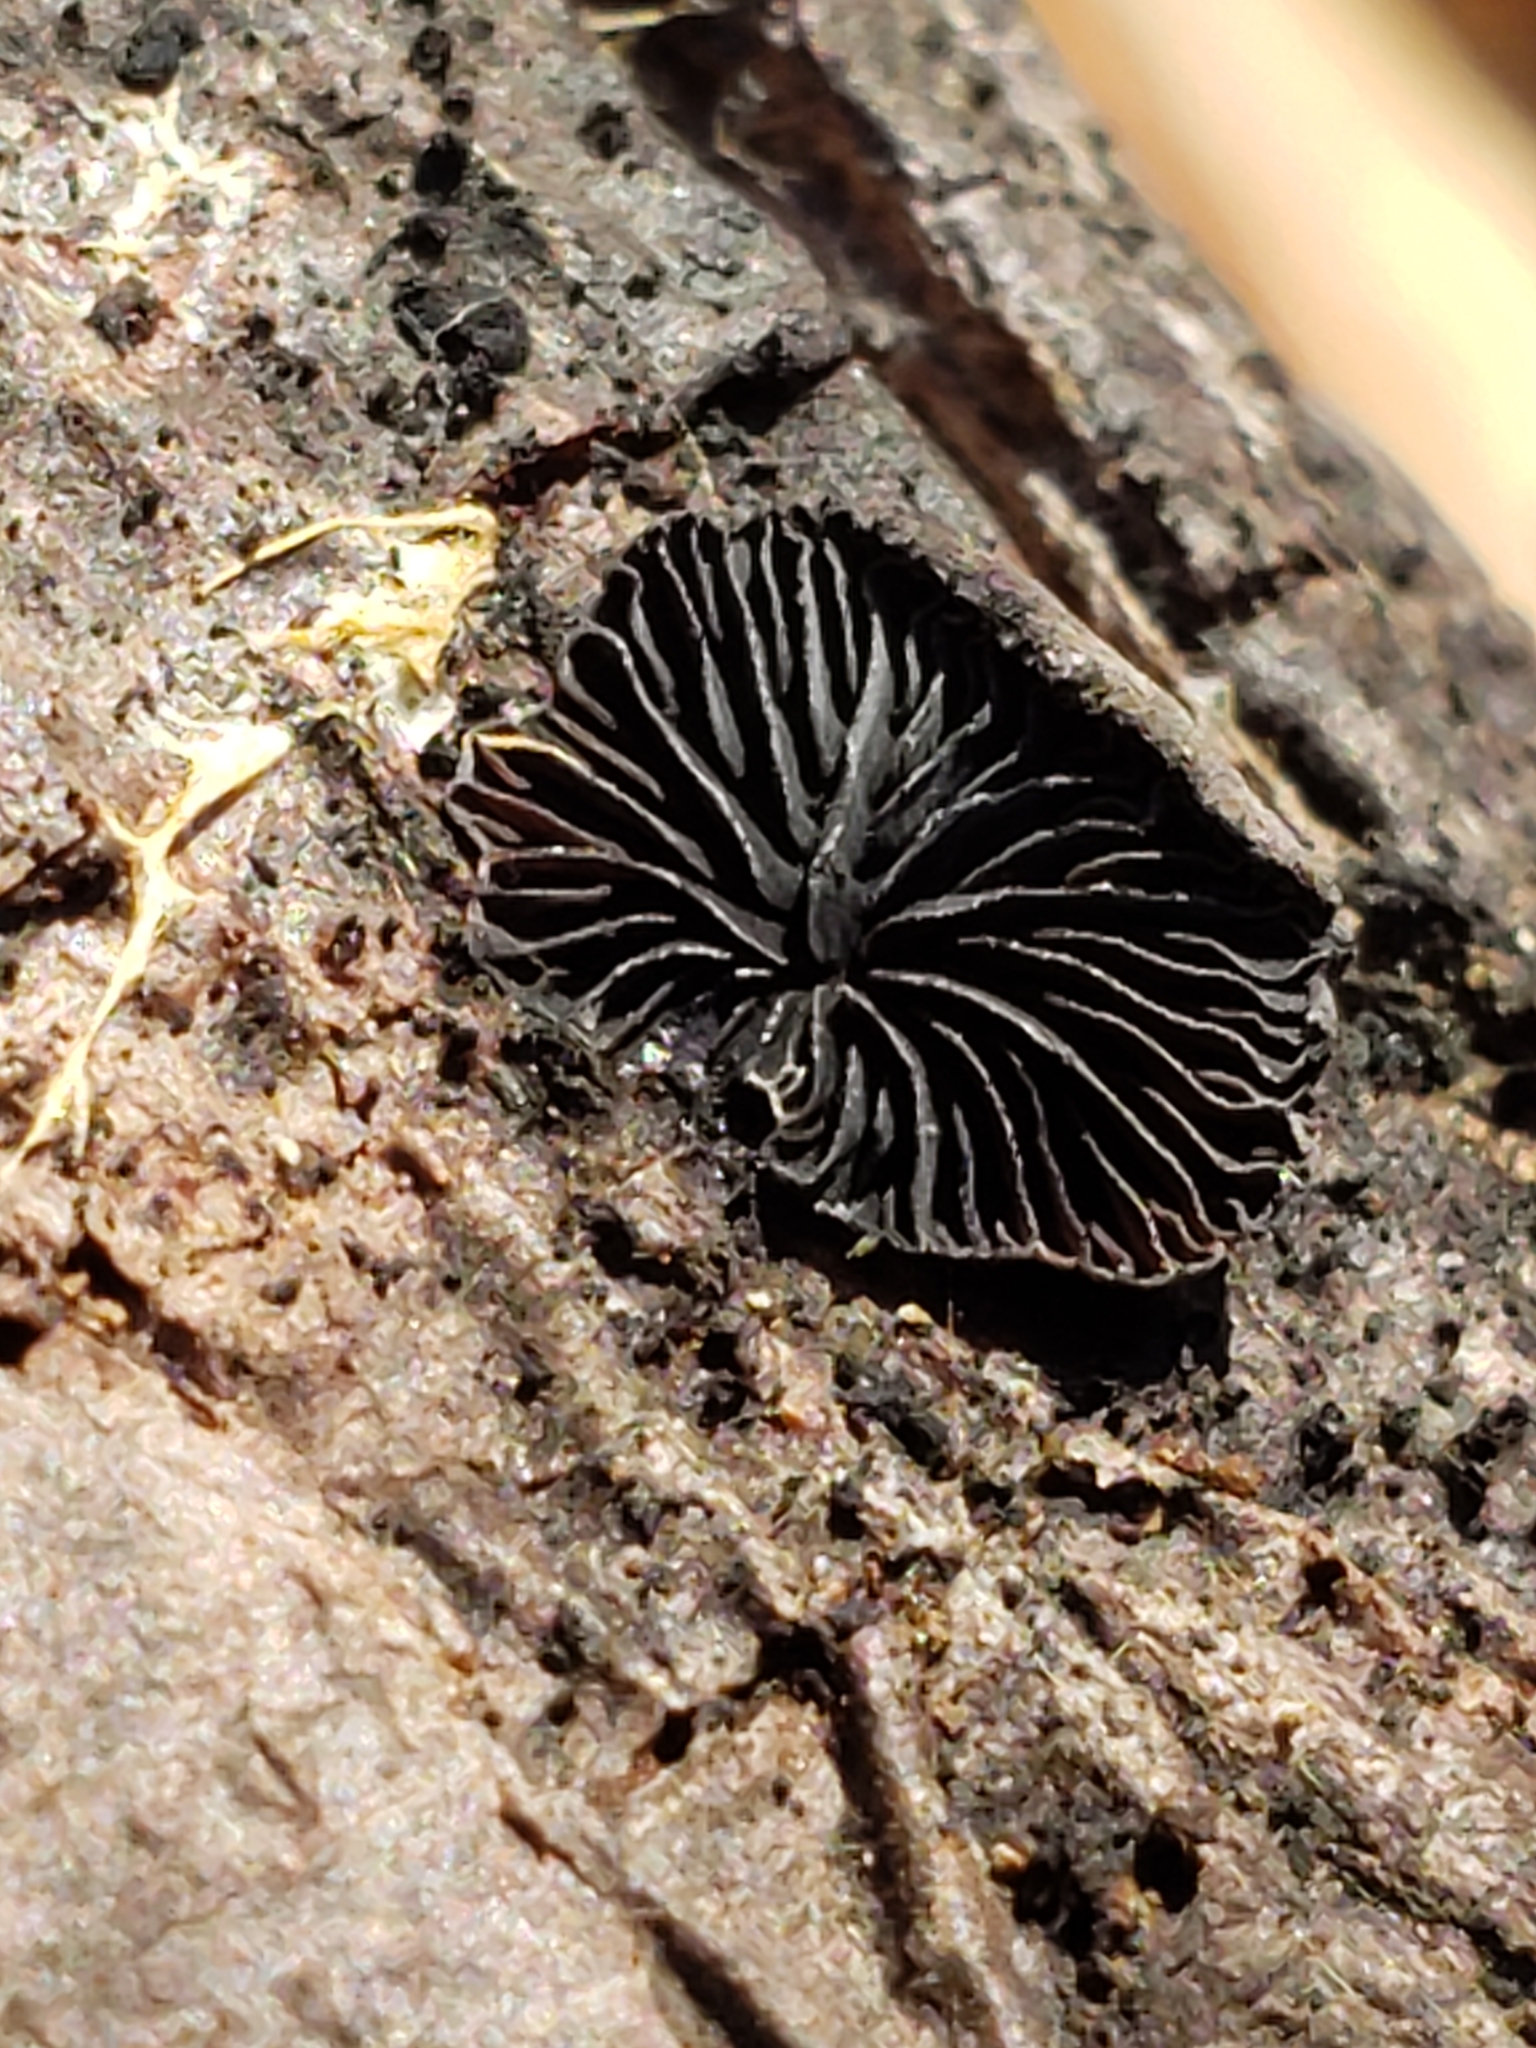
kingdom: Fungi
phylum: Basidiomycota
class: Agaricomycetes
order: Agaricales
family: Pleurotaceae
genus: Resupinatus
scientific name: Resupinatus applicatus
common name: Smoked oysterling
